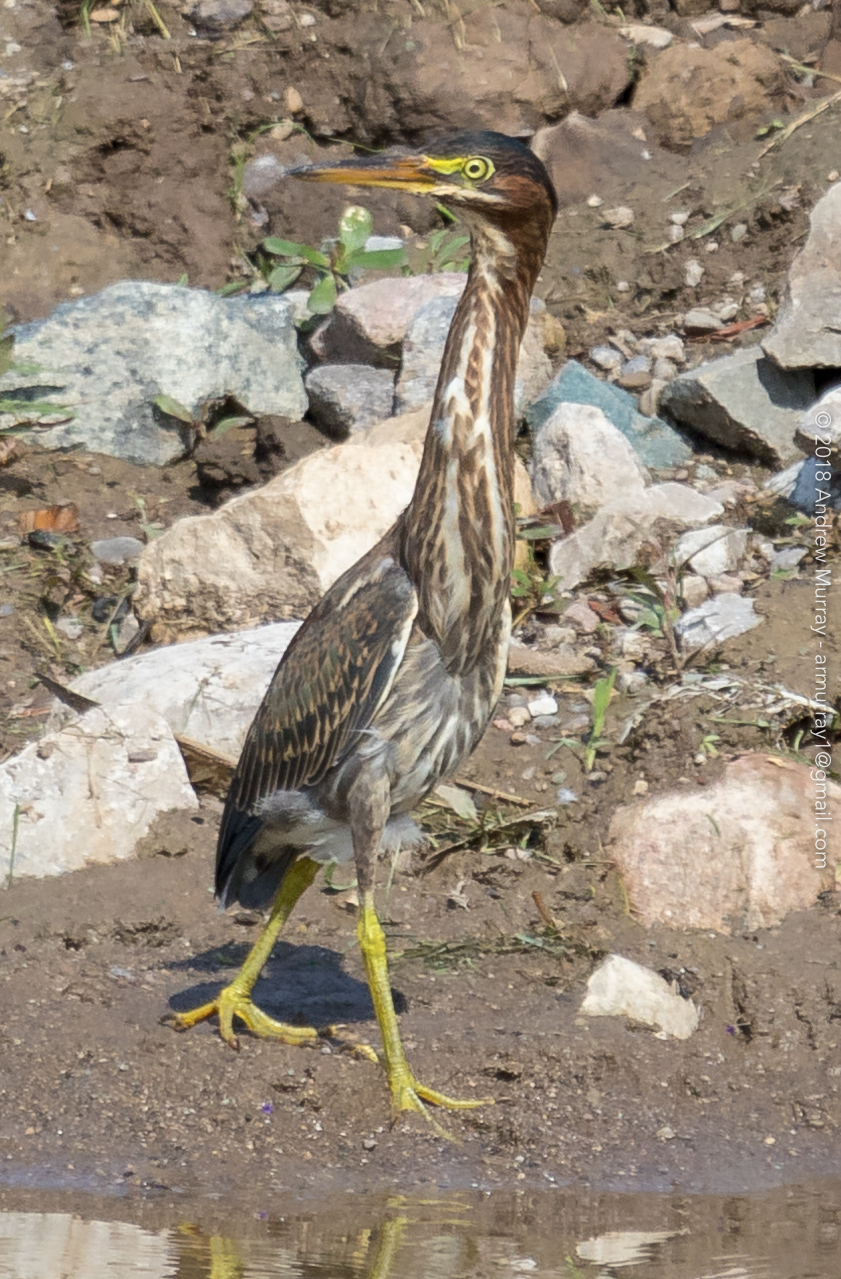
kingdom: Animalia
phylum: Chordata
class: Aves
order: Pelecaniformes
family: Ardeidae
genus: Butorides
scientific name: Butorides virescens
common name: Green heron
